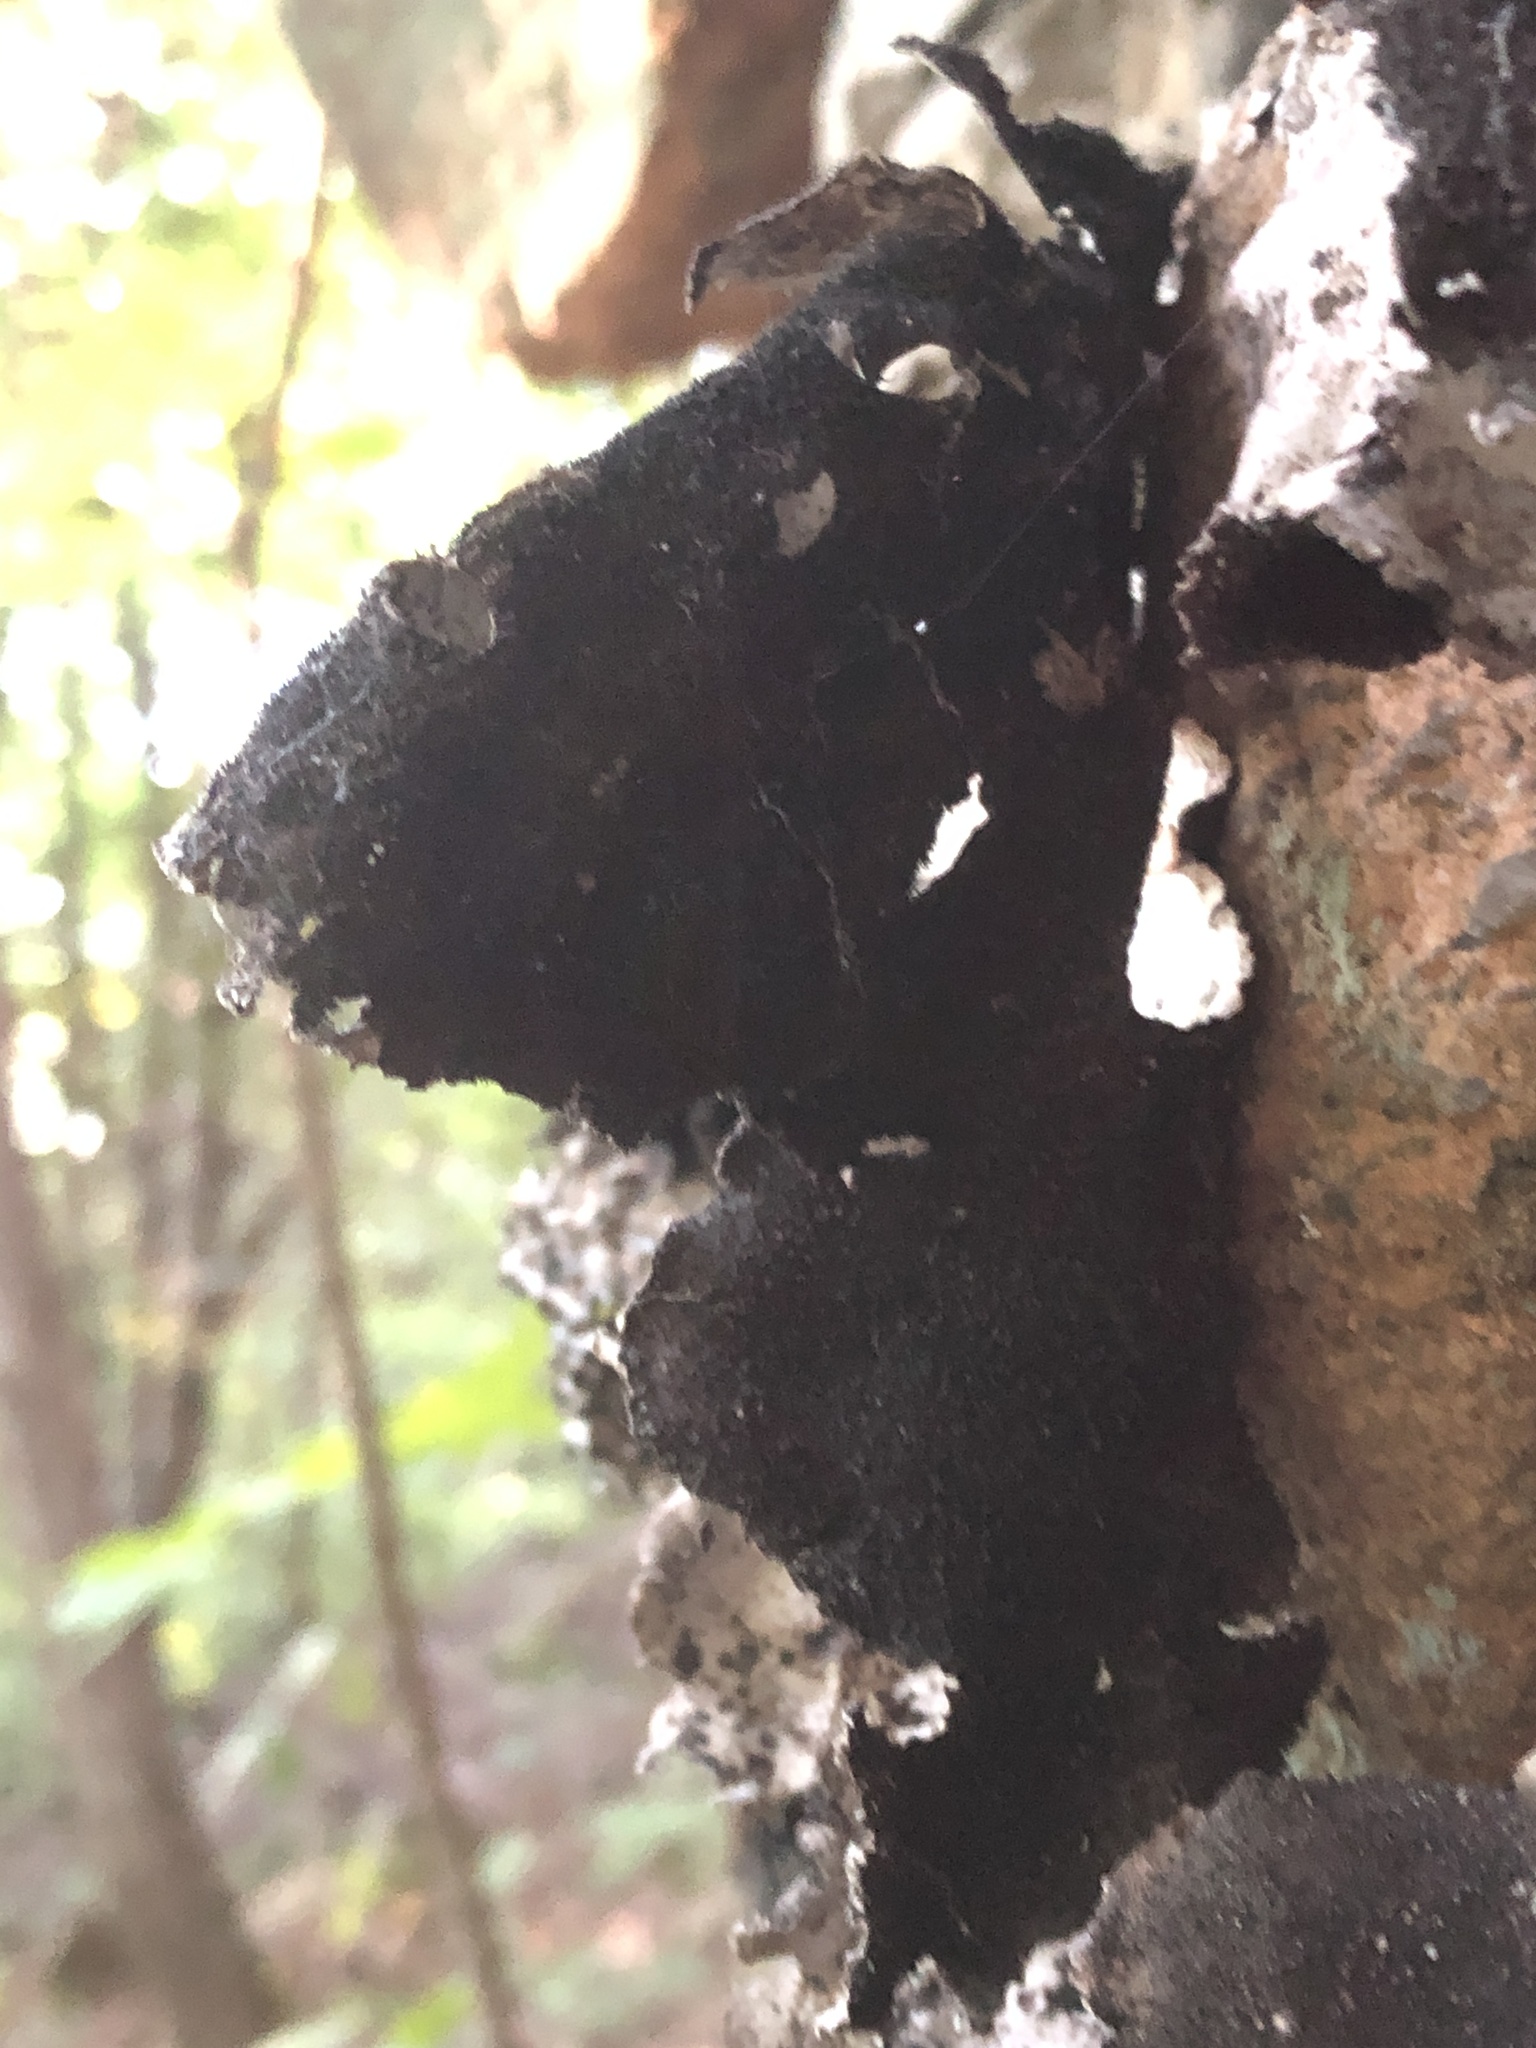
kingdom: Fungi
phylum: Ascomycota
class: Lecanoromycetes
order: Umbilicariales
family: Umbilicariaceae
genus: Umbilicaria
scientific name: Umbilicaria americana
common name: Frosted rock tripe
